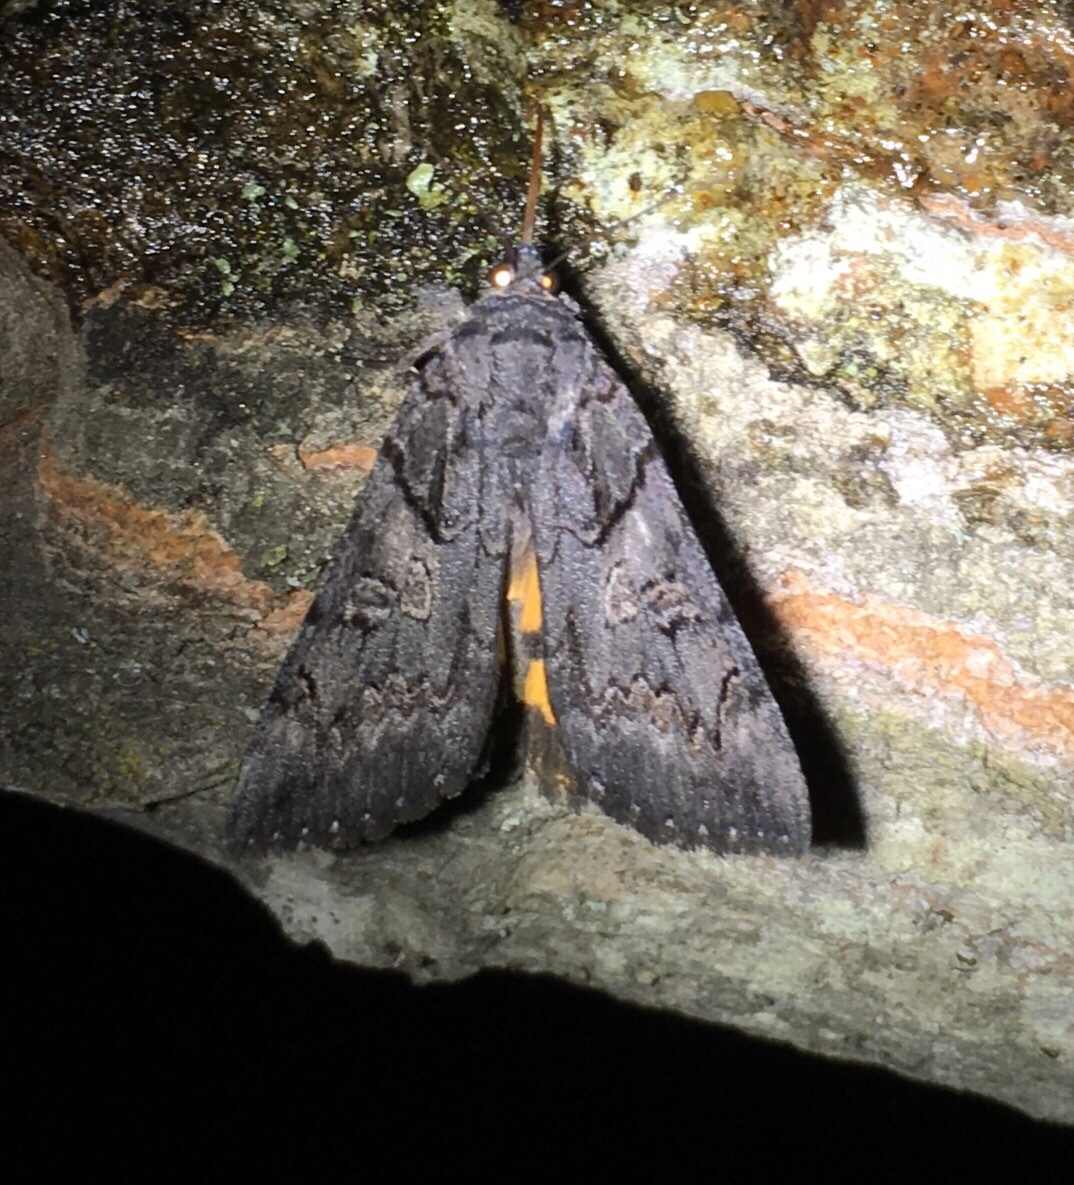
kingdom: Animalia
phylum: Arthropoda
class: Insecta
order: Lepidoptera
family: Erebidae
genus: Catocala
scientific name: Catocala antinympha
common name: Sweetfern underwing
